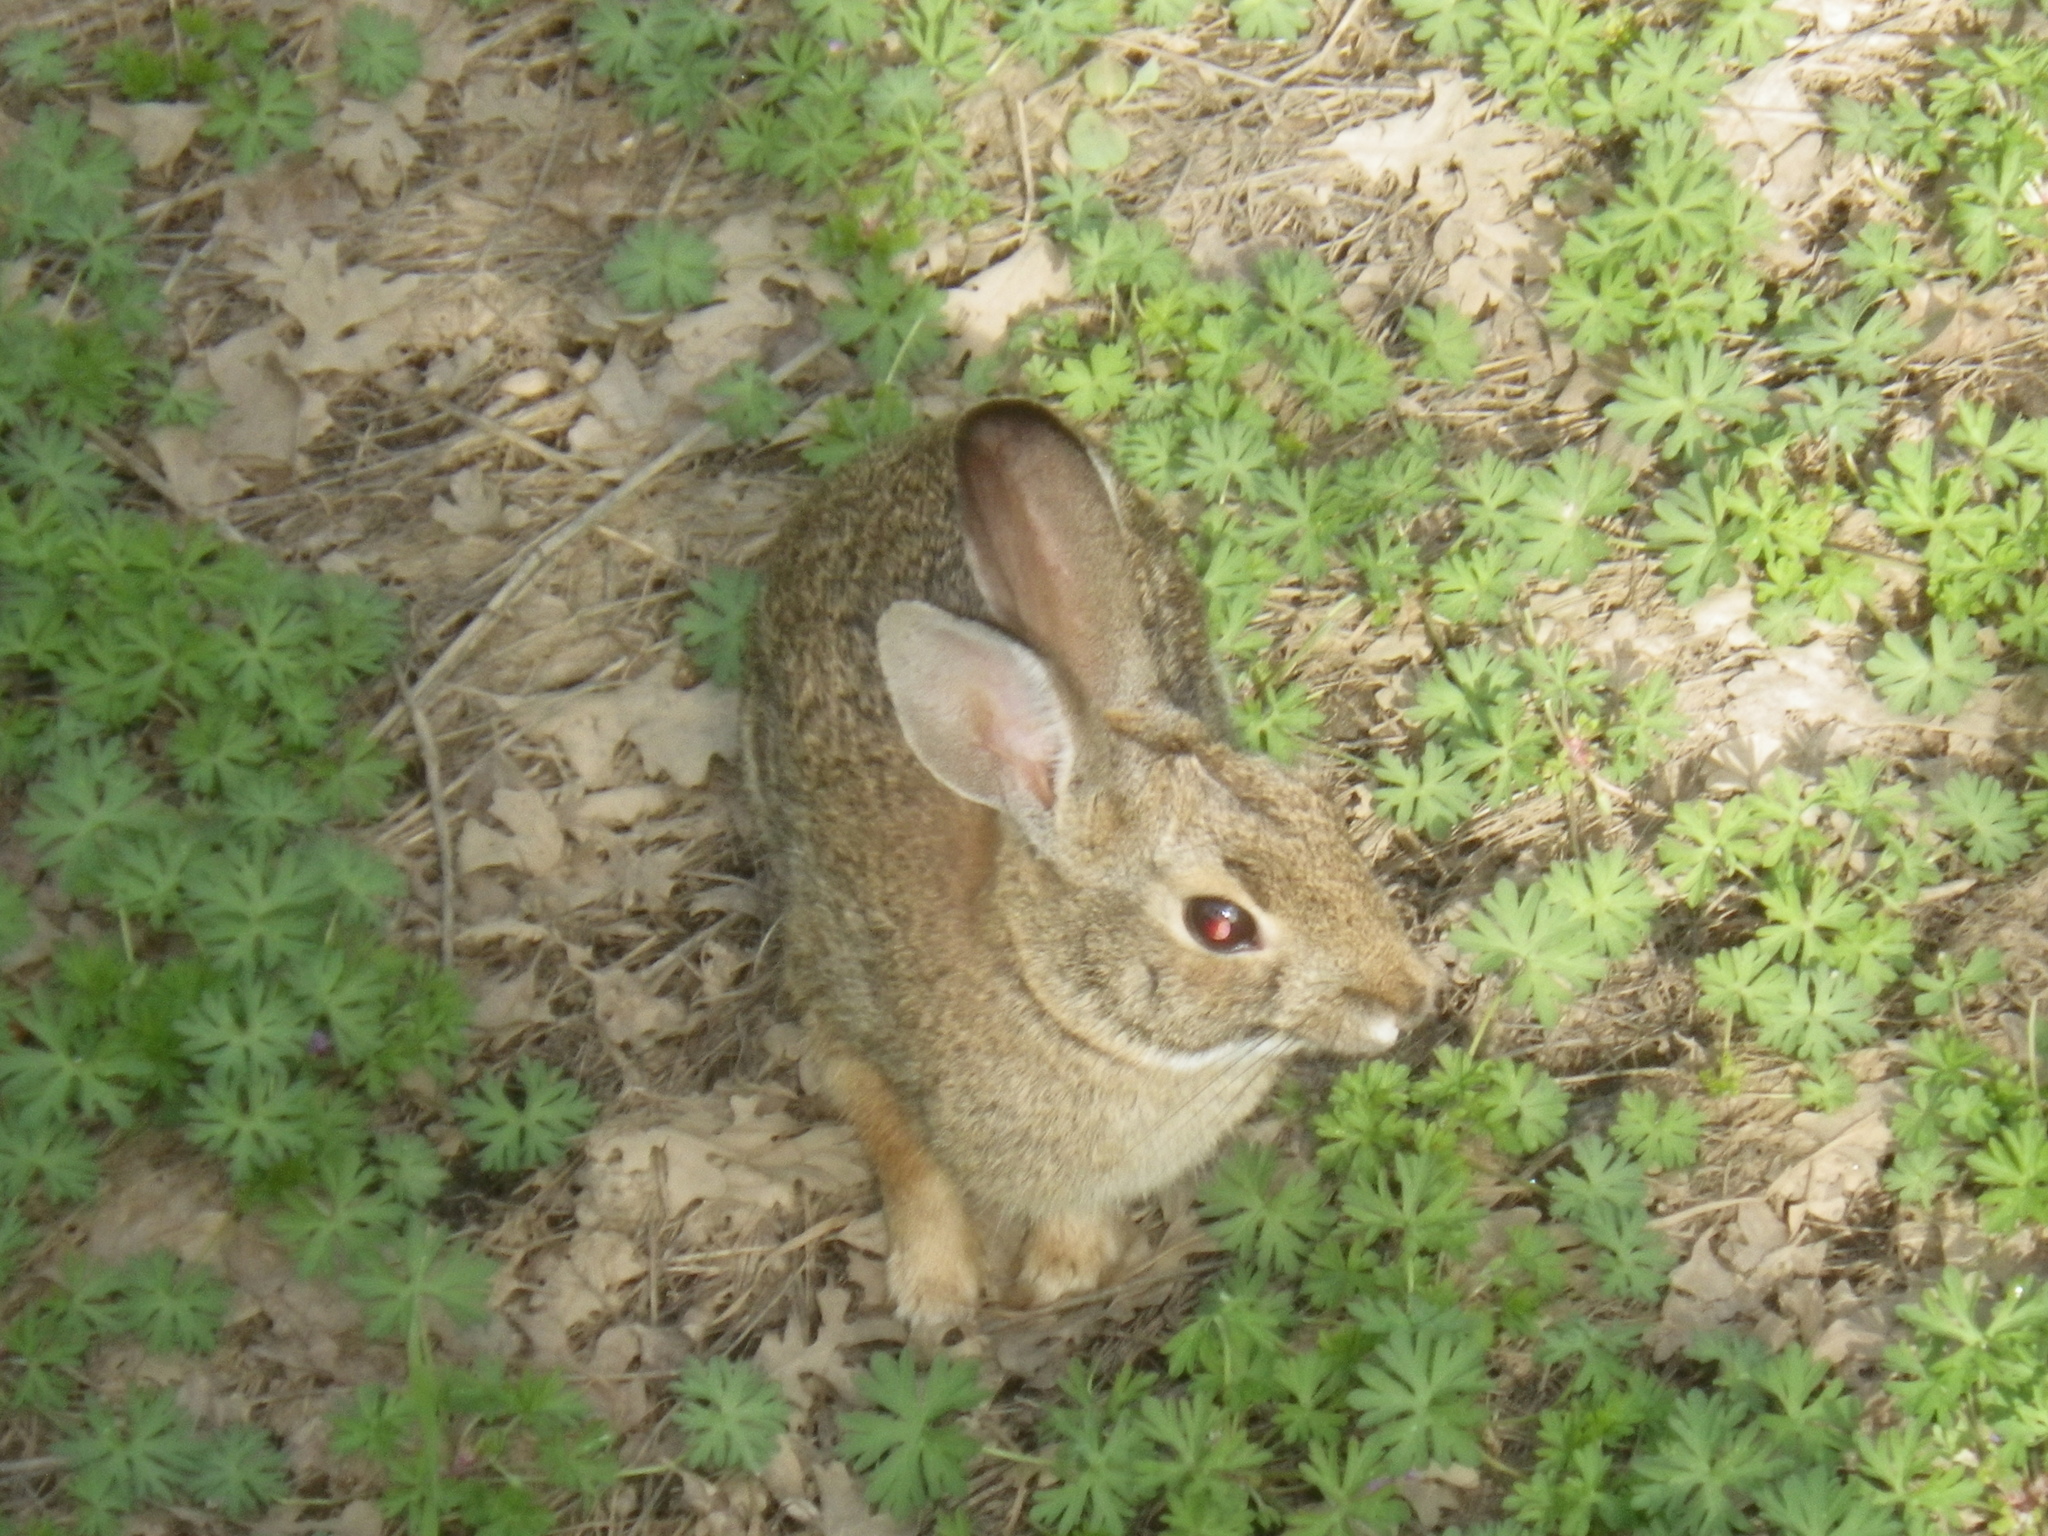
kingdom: Animalia
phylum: Chordata
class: Mammalia
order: Lagomorpha
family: Leporidae
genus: Sylvilagus
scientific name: Sylvilagus audubonii
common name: Desert cottontail
